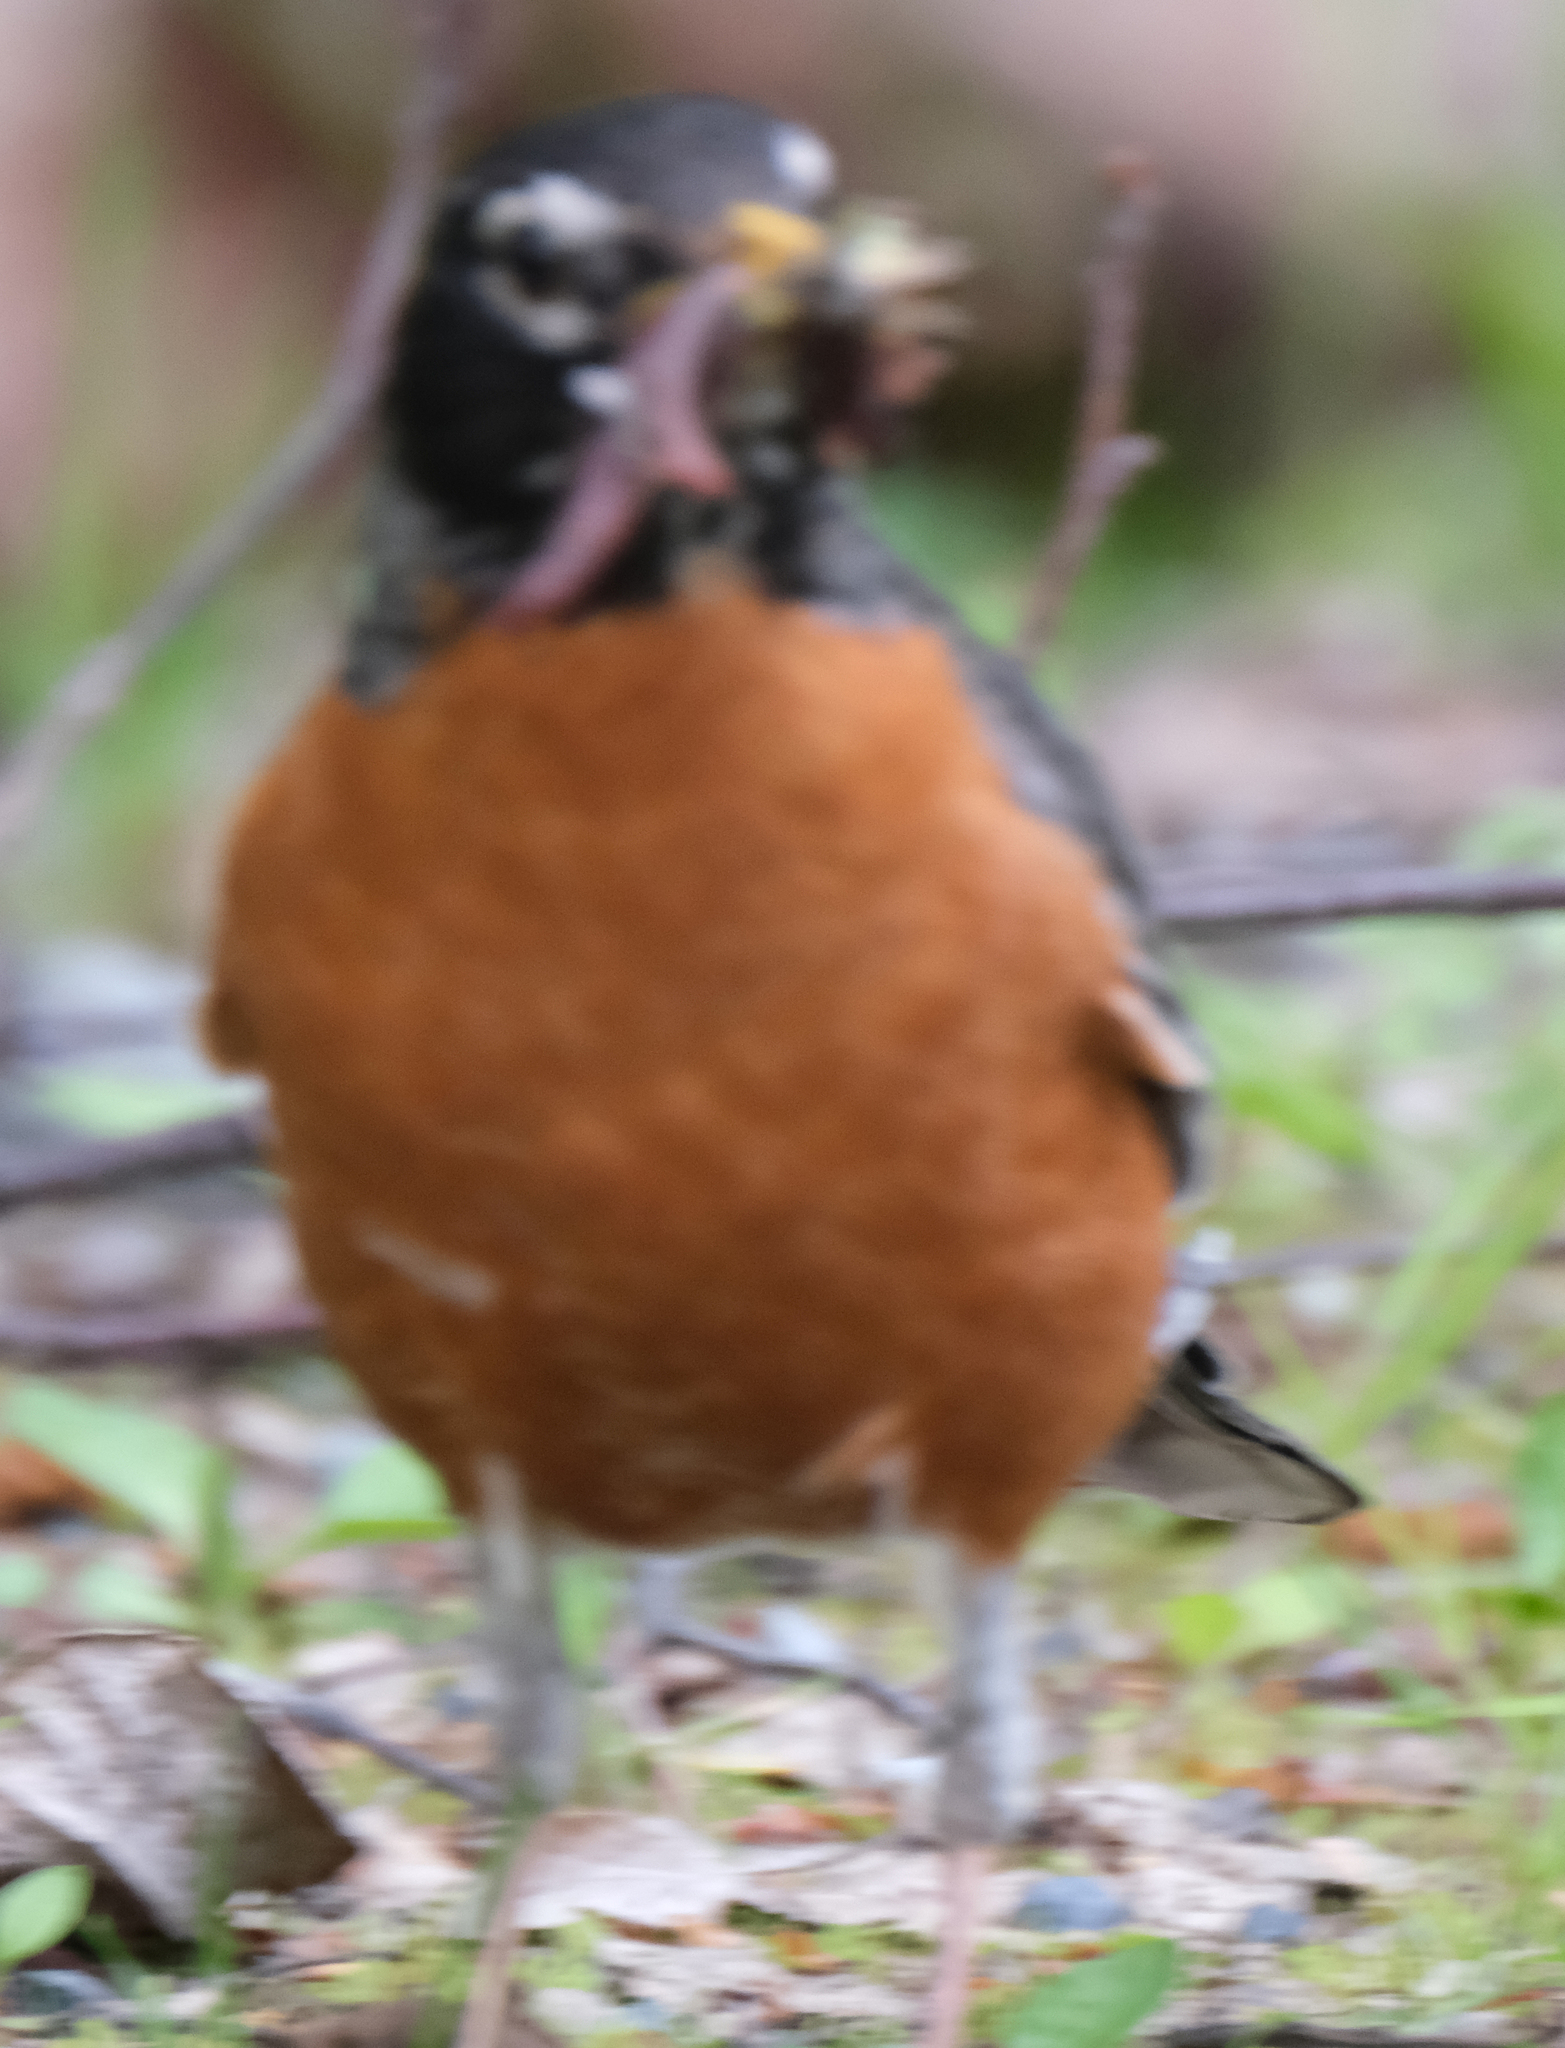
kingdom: Animalia
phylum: Chordata
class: Aves
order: Passeriformes
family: Turdidae
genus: Turdus
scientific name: Turdus migratorius
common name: American robin
